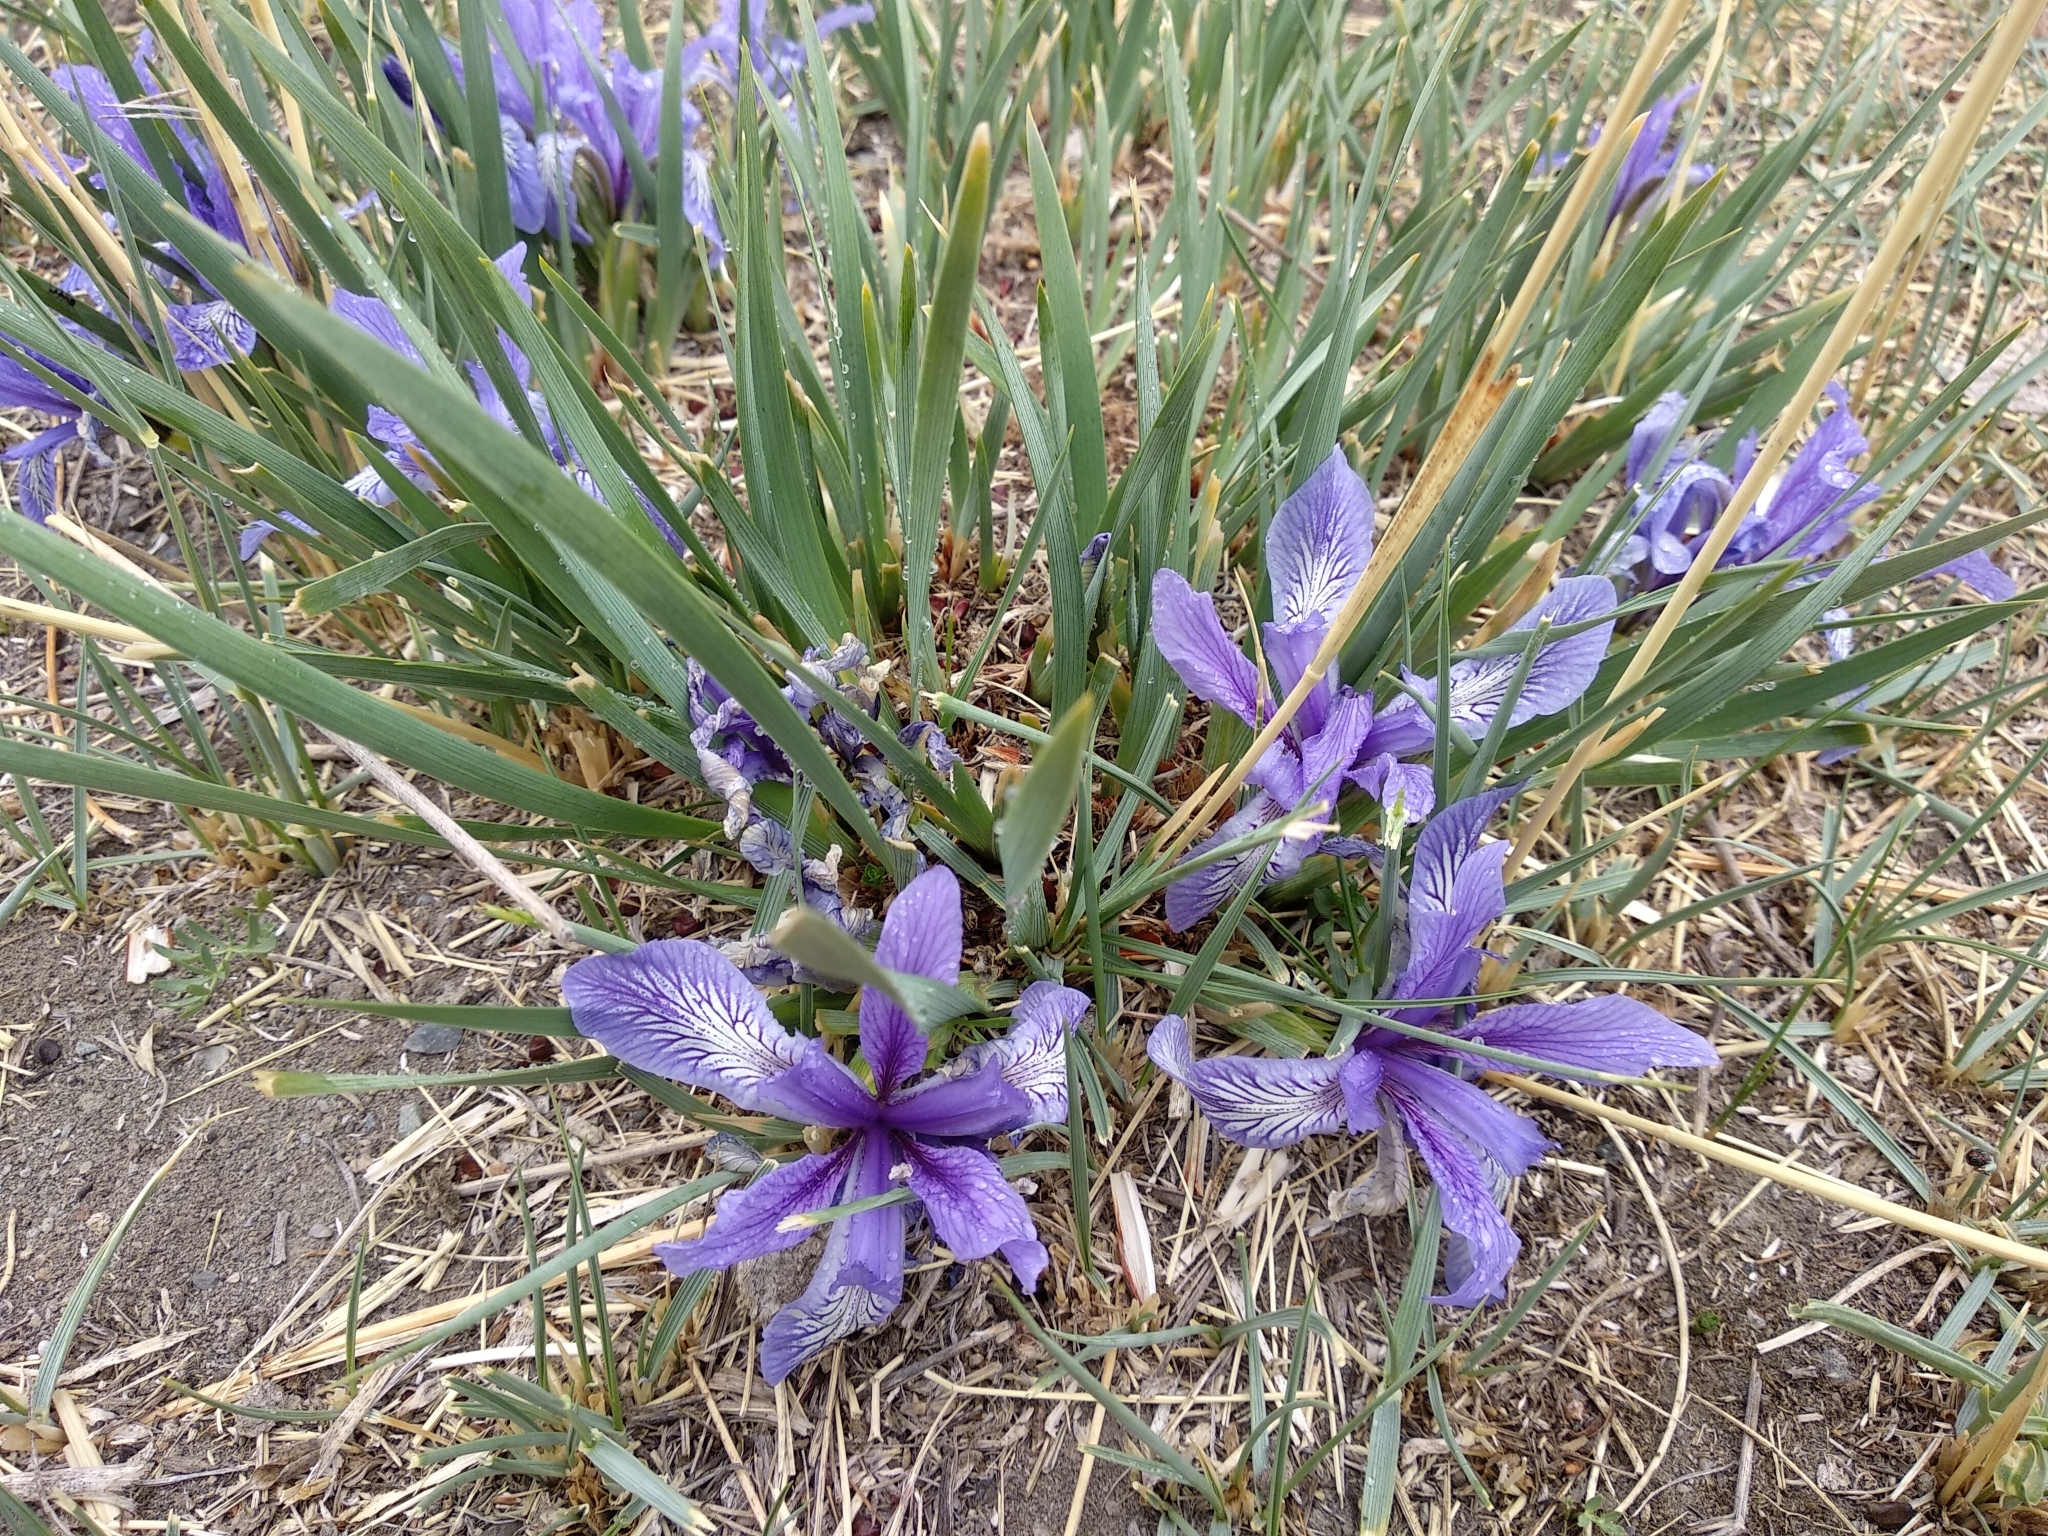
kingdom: Plantae
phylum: Tracheophyta
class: Liliopsida
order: Asparagales
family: Iridaceae
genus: Iris
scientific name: Iris pallasii
